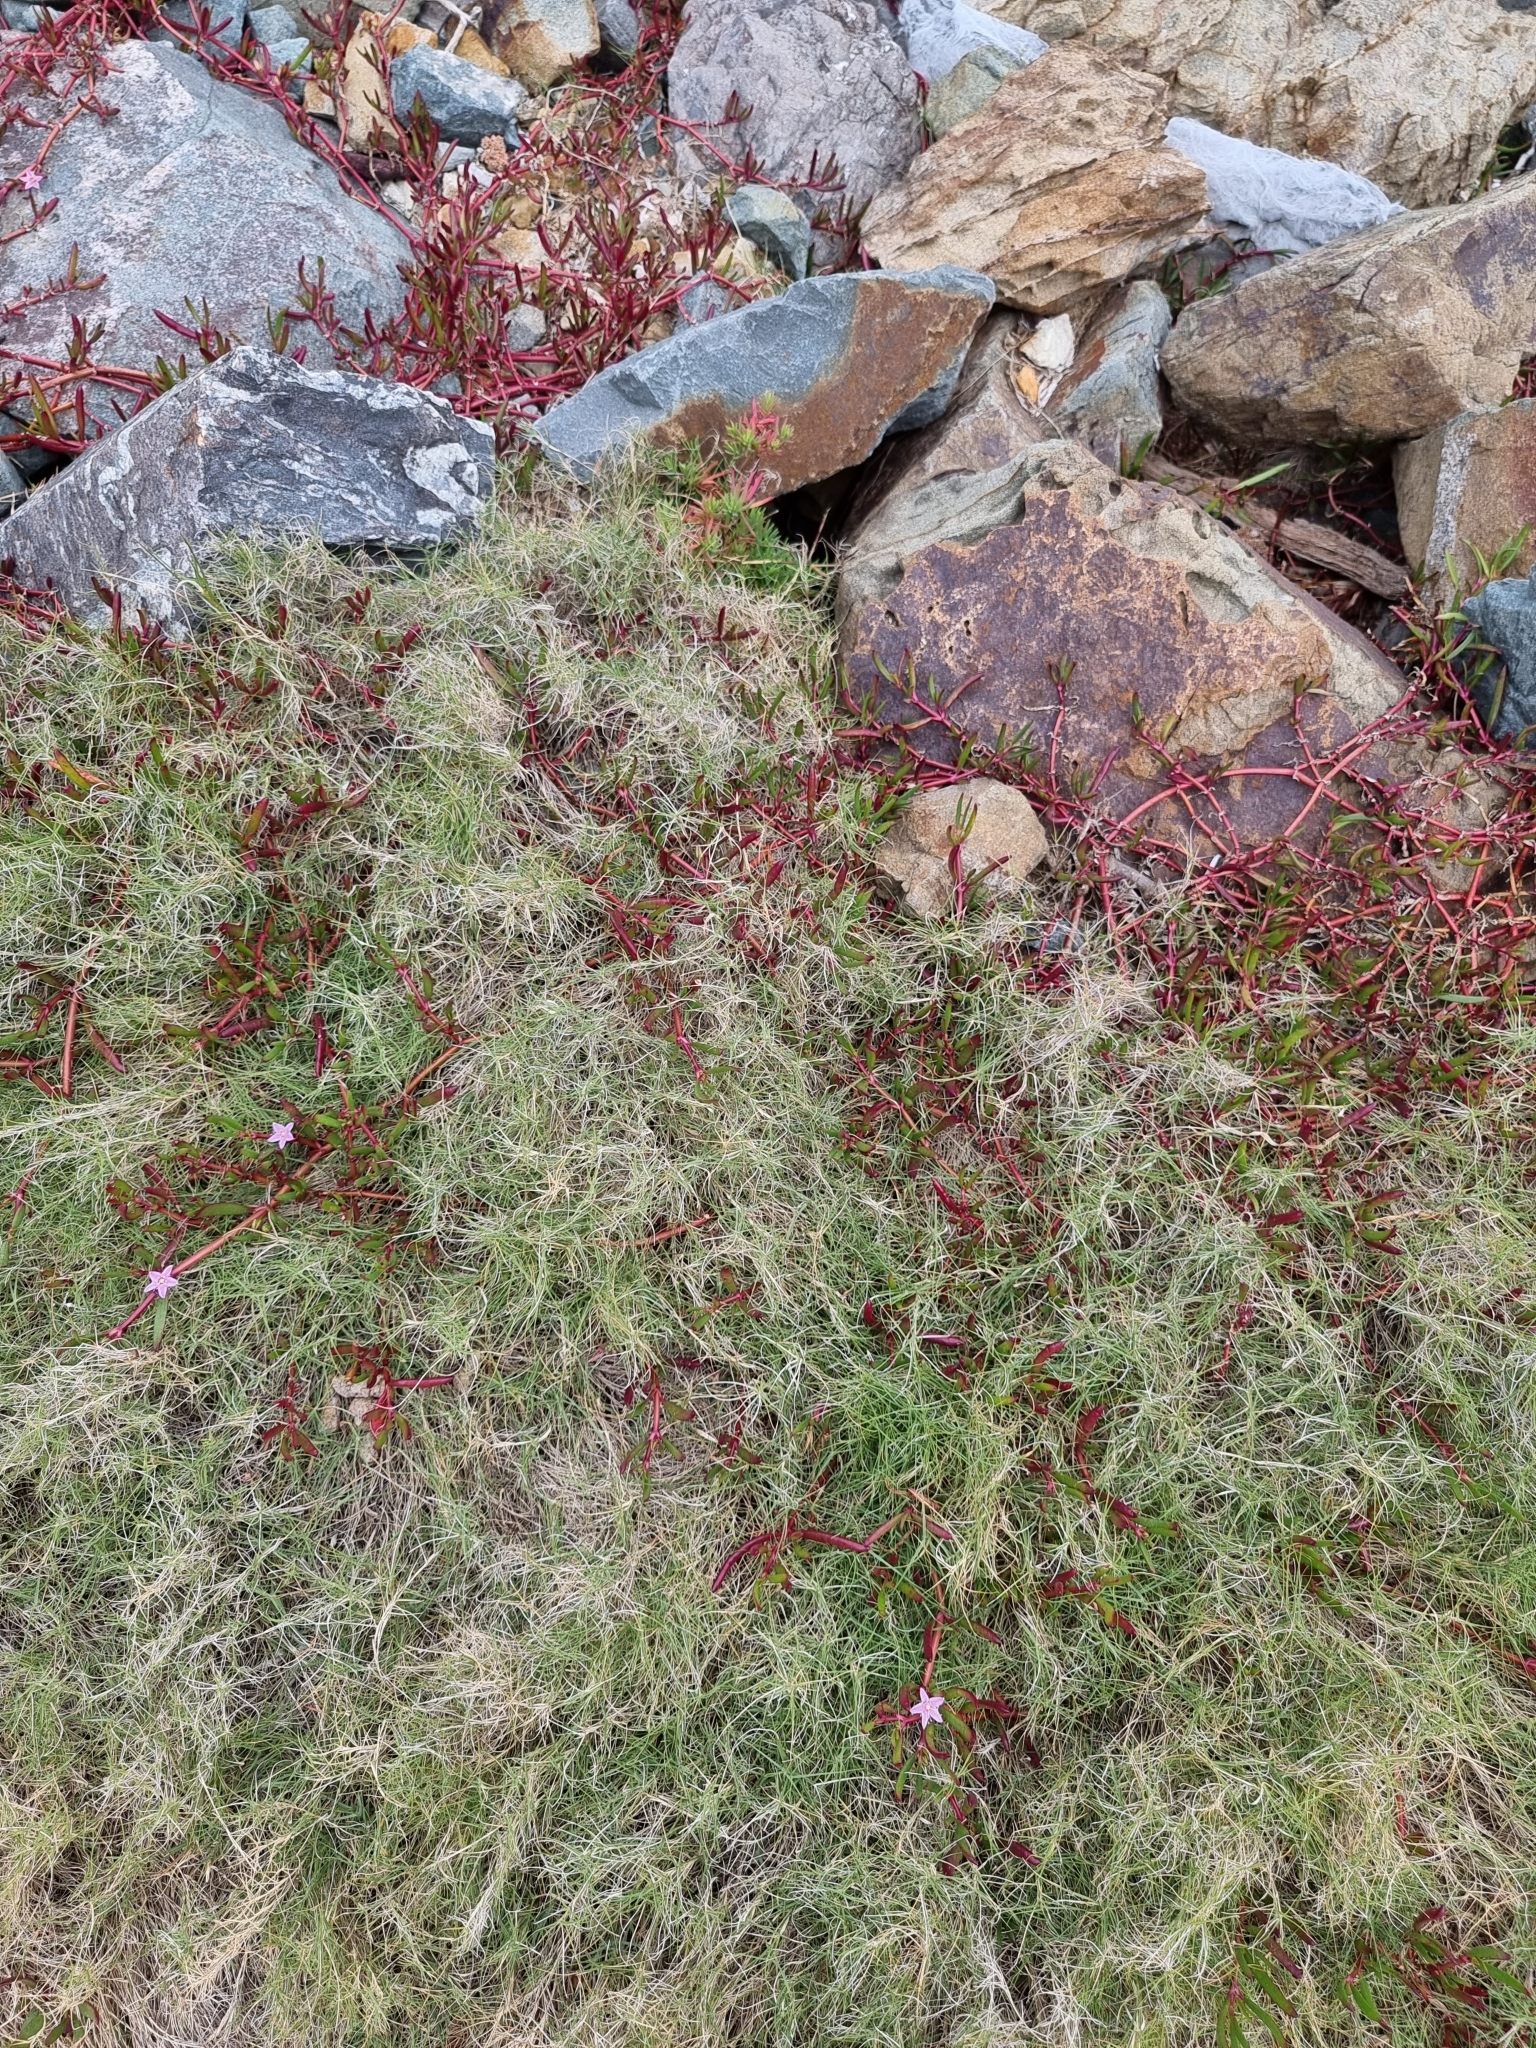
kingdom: Plantae
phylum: Tracheophyta
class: Magnoliopsida
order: Caryophyllales
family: Aizoaceae
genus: Sesuvium
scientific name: Sesuvium portulacastrum
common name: Sea-purslane
